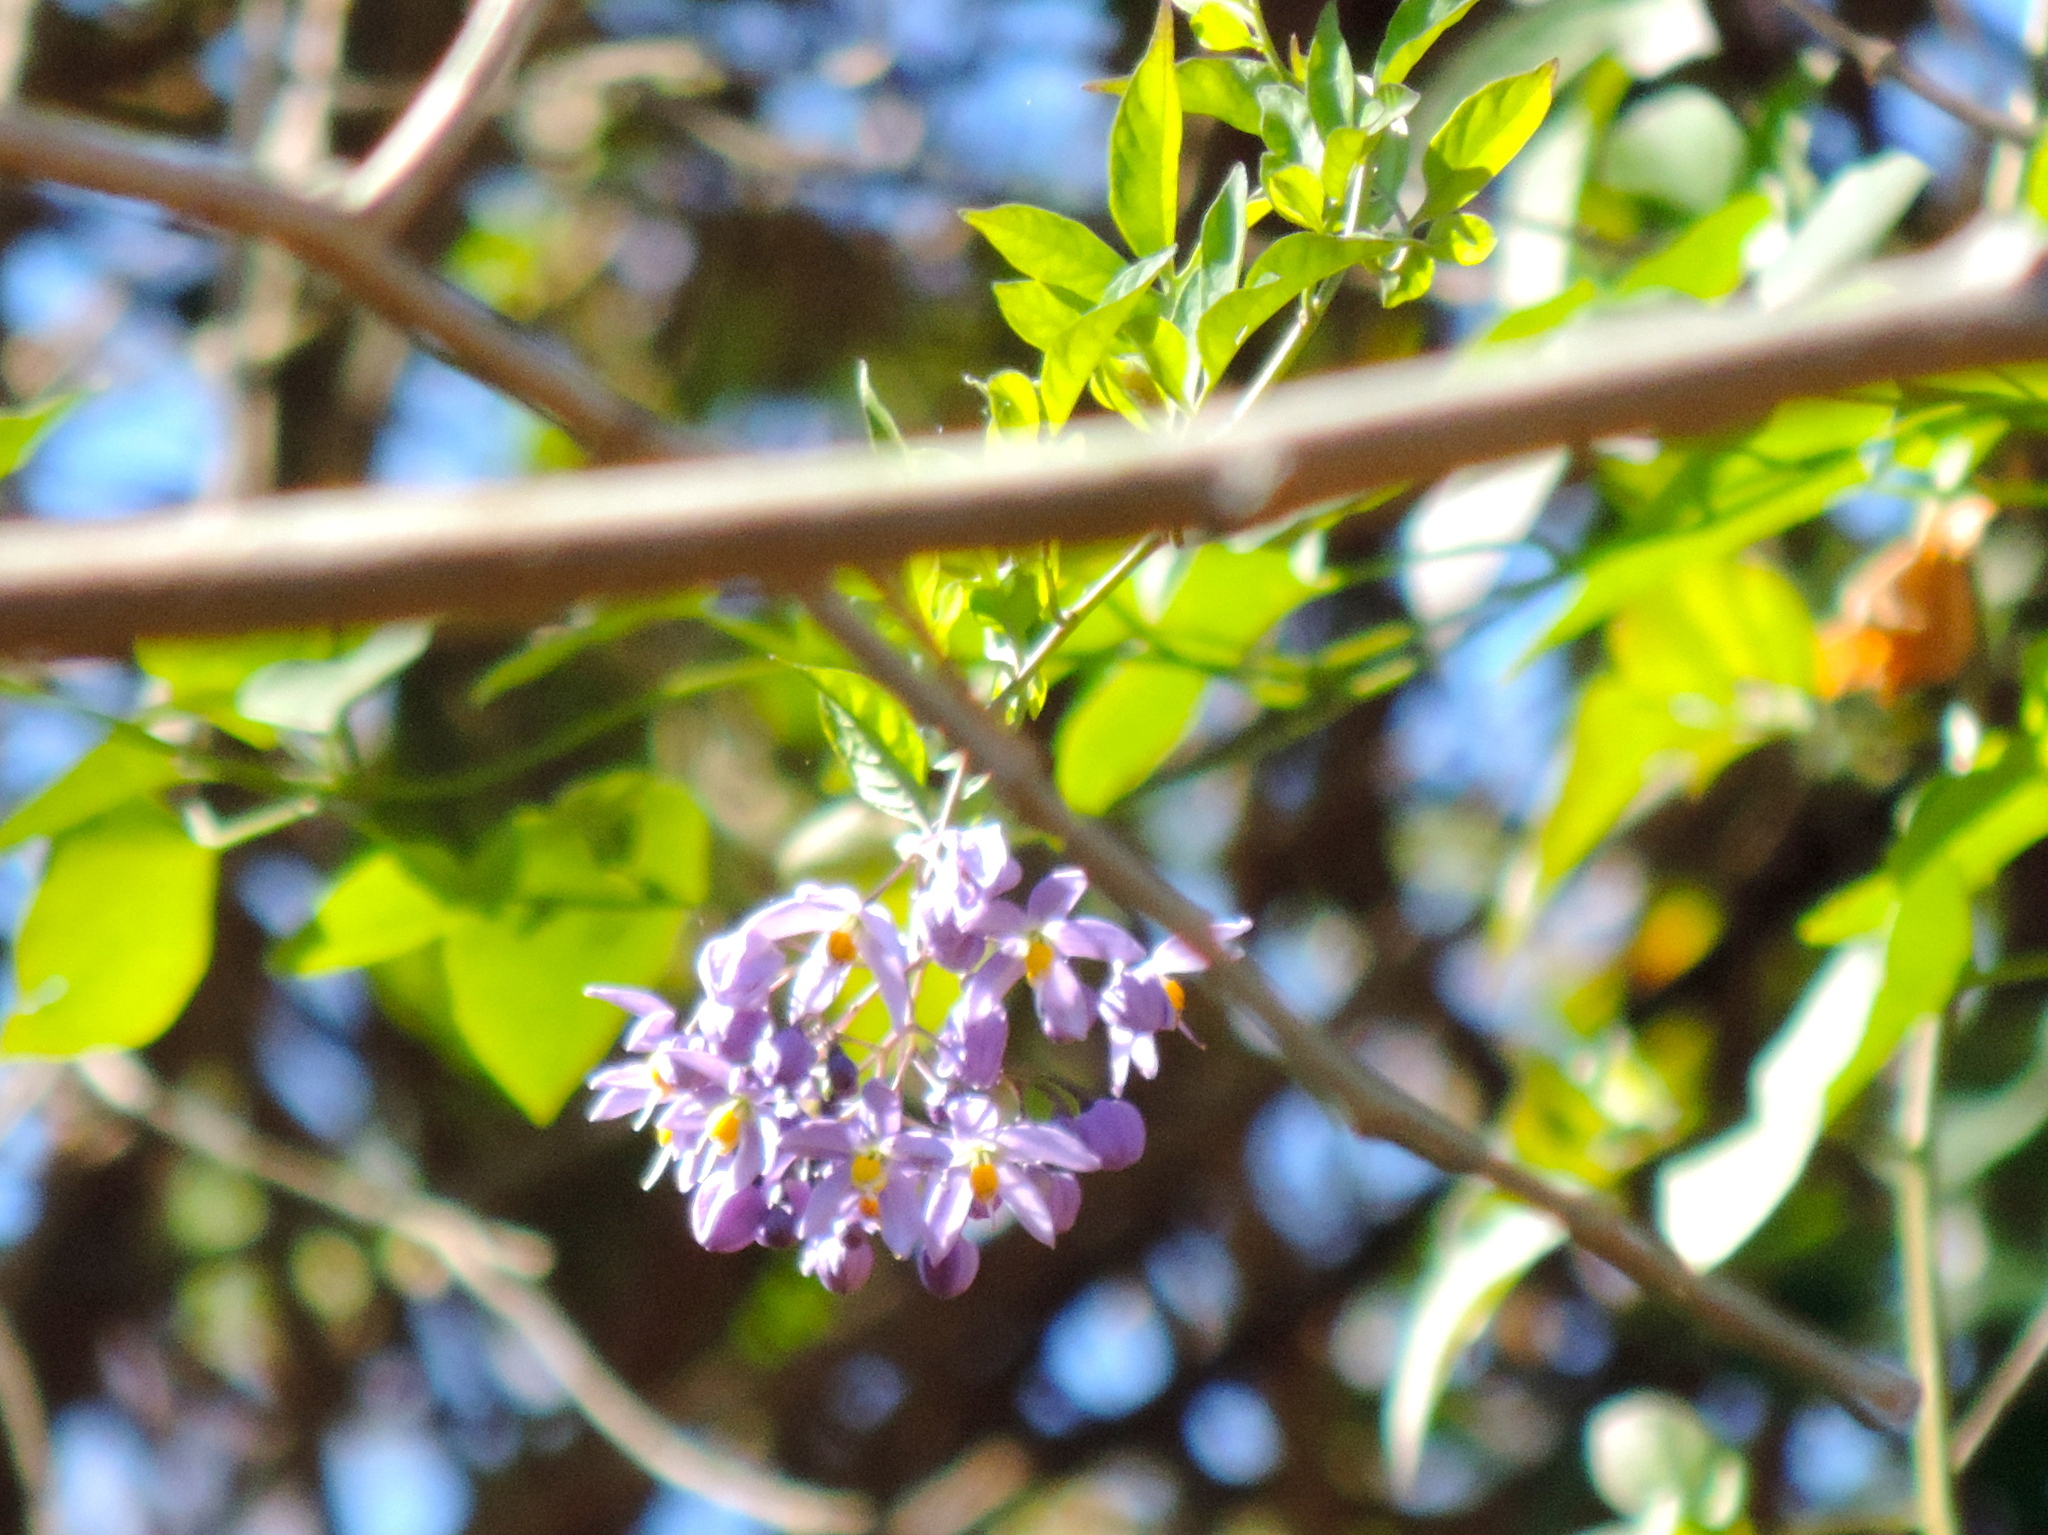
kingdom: Plantae
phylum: Tracheophyta
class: Magnoliopsida
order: Solanales
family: Solanaceae
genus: Solanum
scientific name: Solanum seaforthianum
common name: Brazilian nightshade
